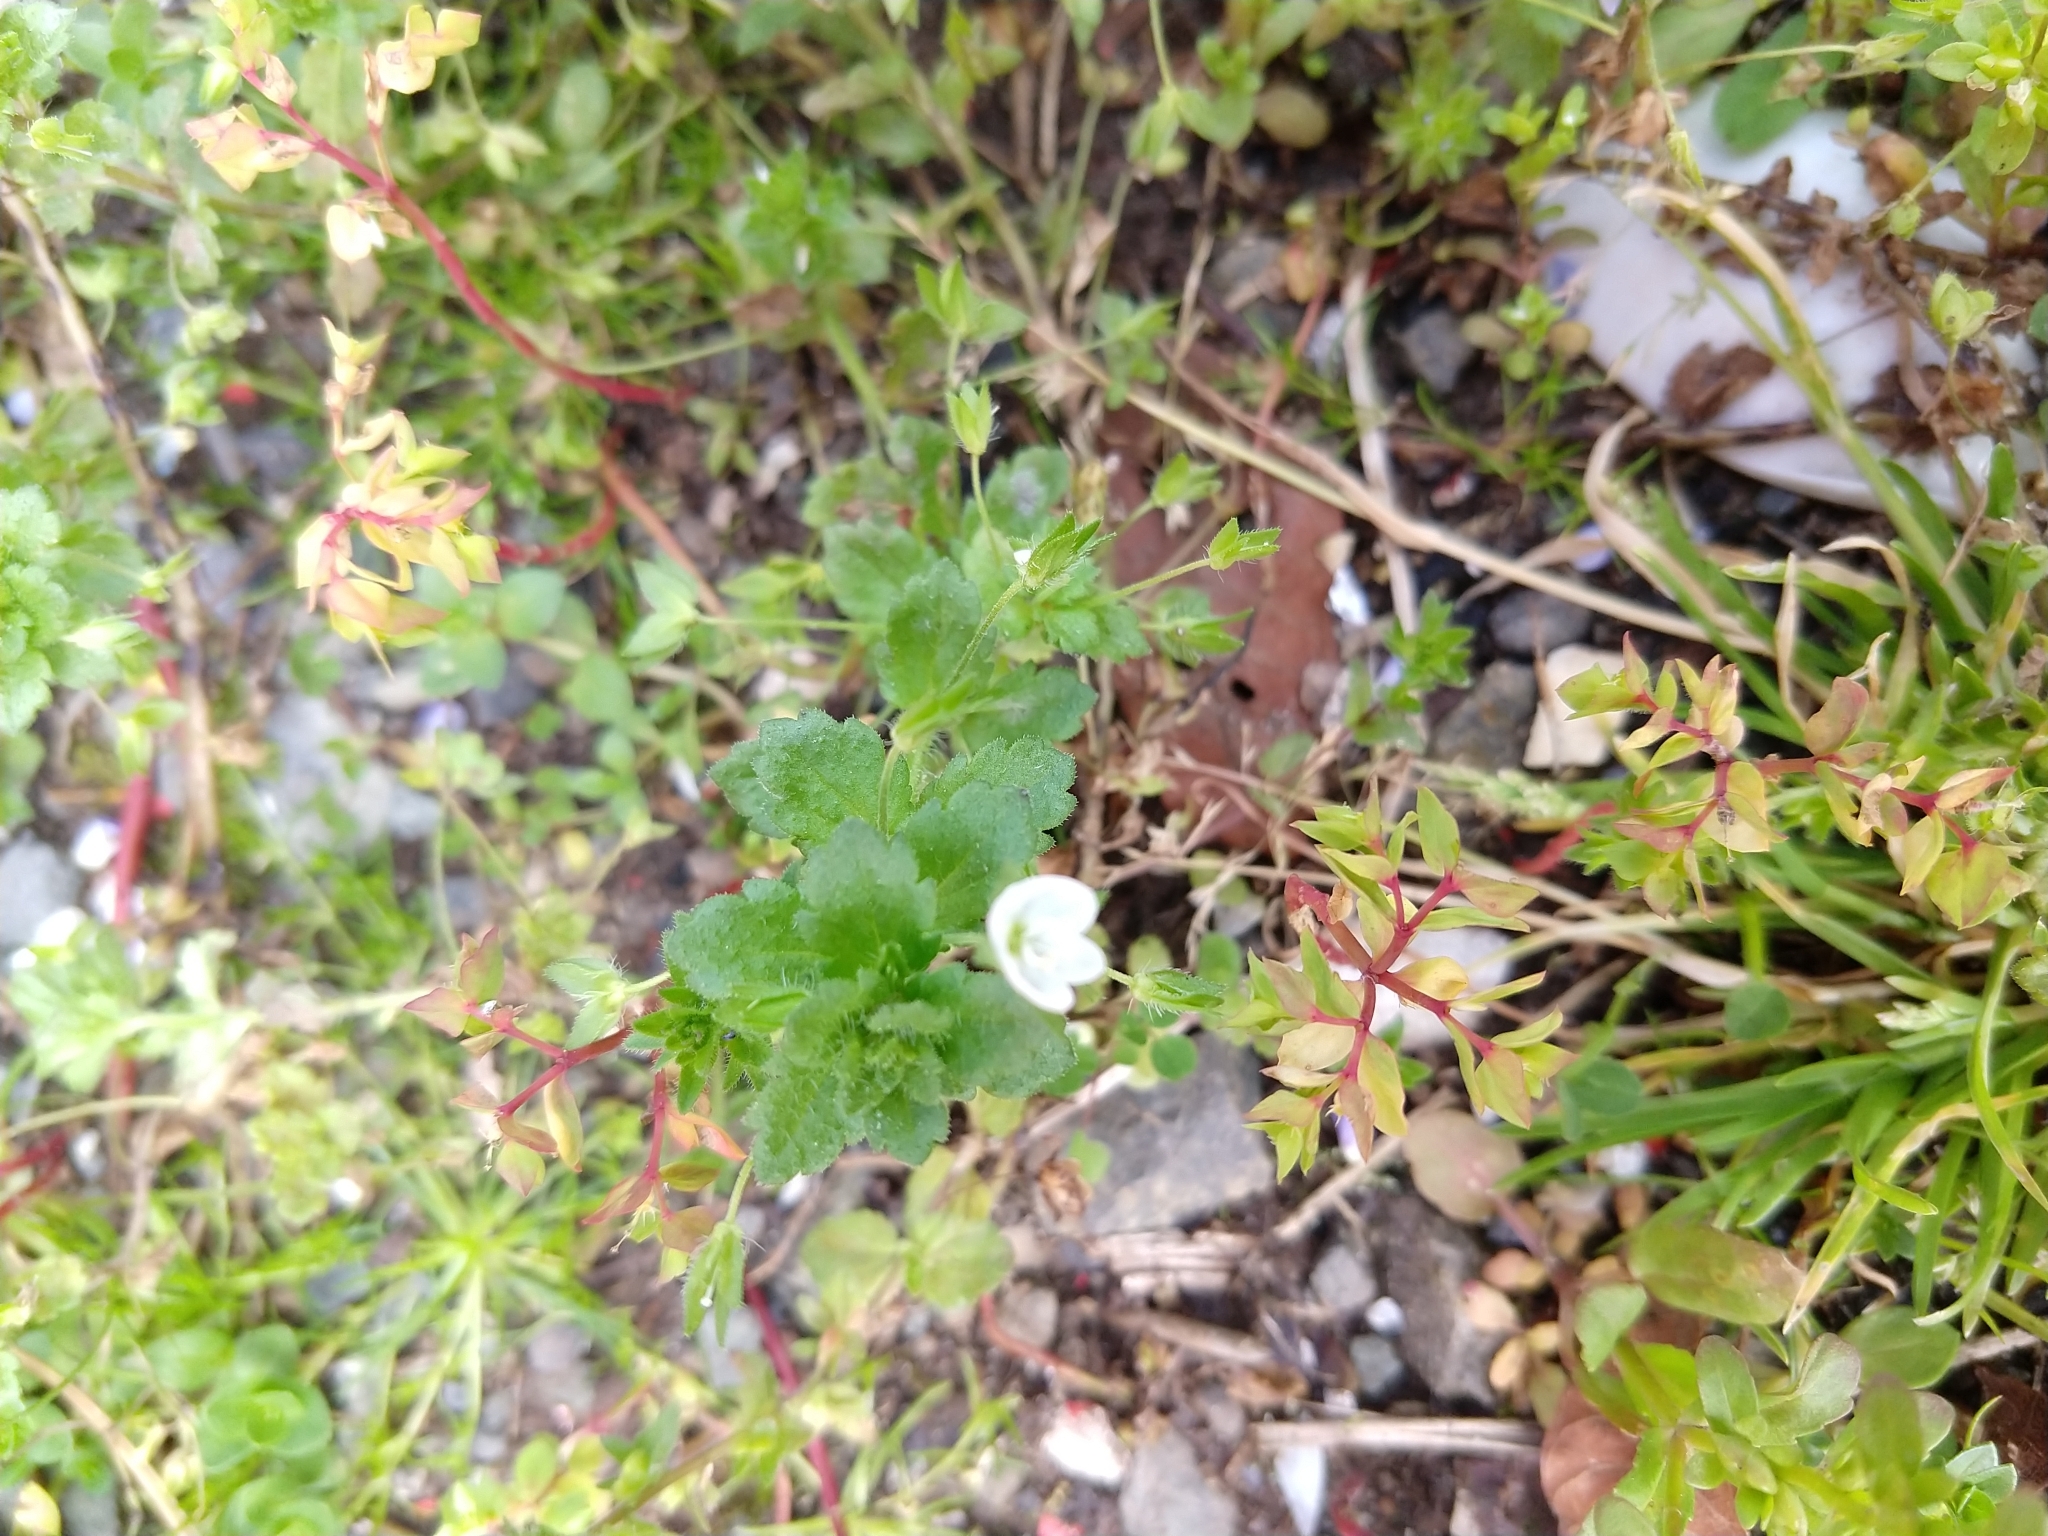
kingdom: Plantae
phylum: Tracheophyta
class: Magnoliopsida
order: Lamiales
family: Plantaginaceae
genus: Veronica
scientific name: Veronica persica
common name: Common field-speedwell
